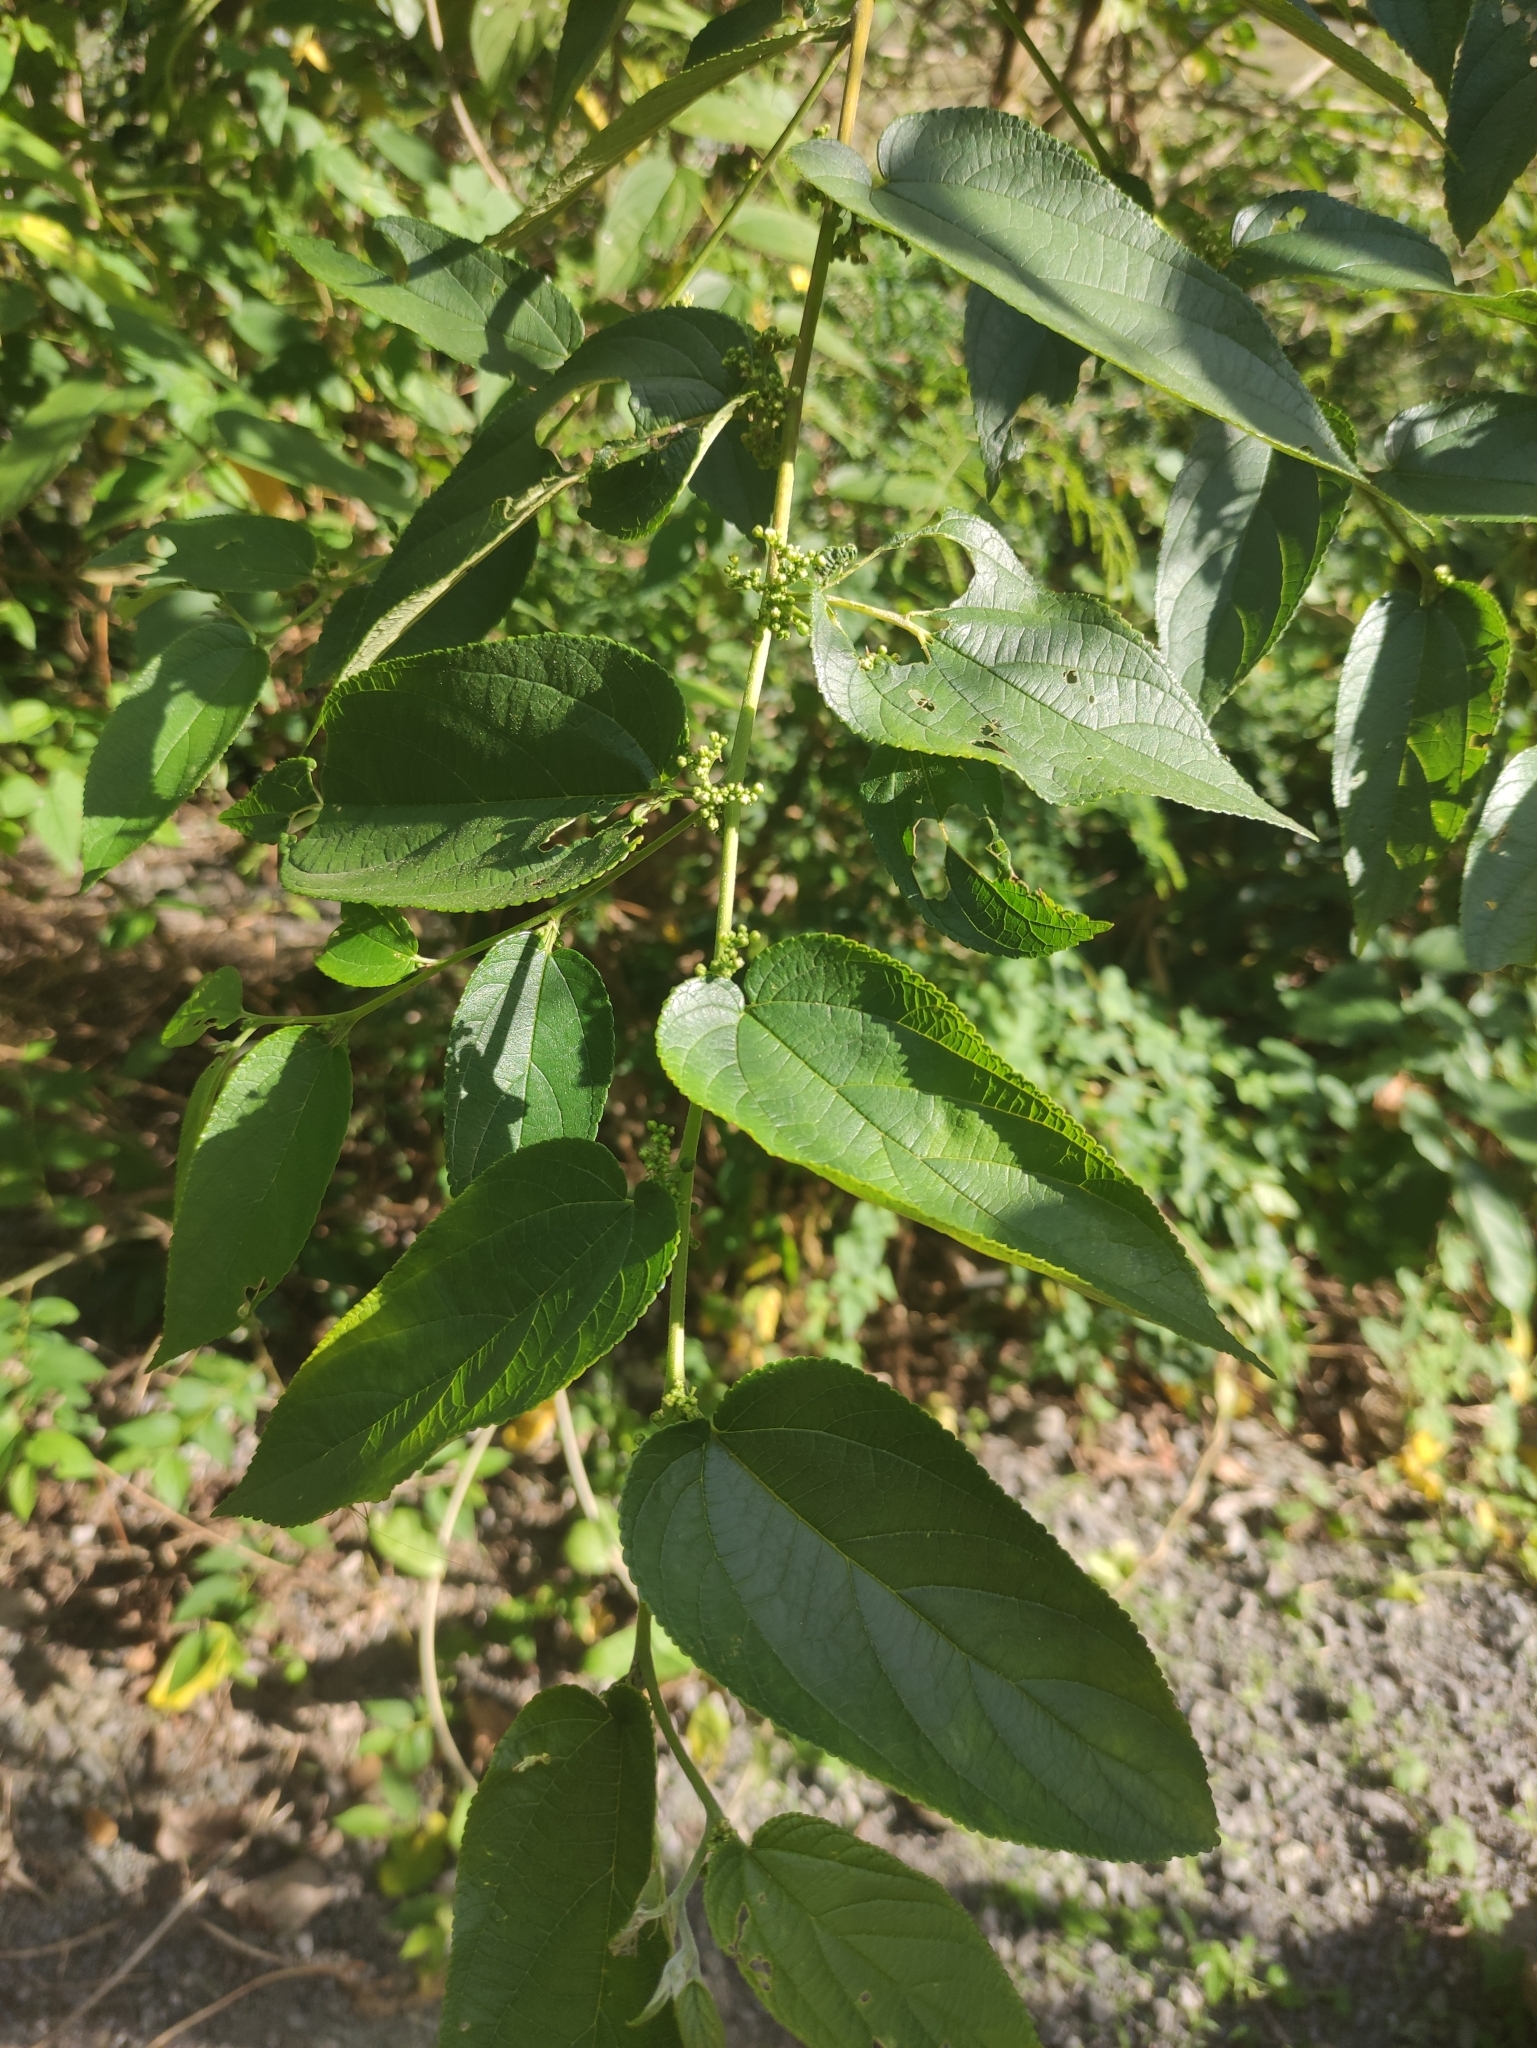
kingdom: Plantae
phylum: Tracheophyta
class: Magnoliopsida
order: Rosales
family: Cannabaceae
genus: Trema
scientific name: Trema orientale
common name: Indian charcoal tree
